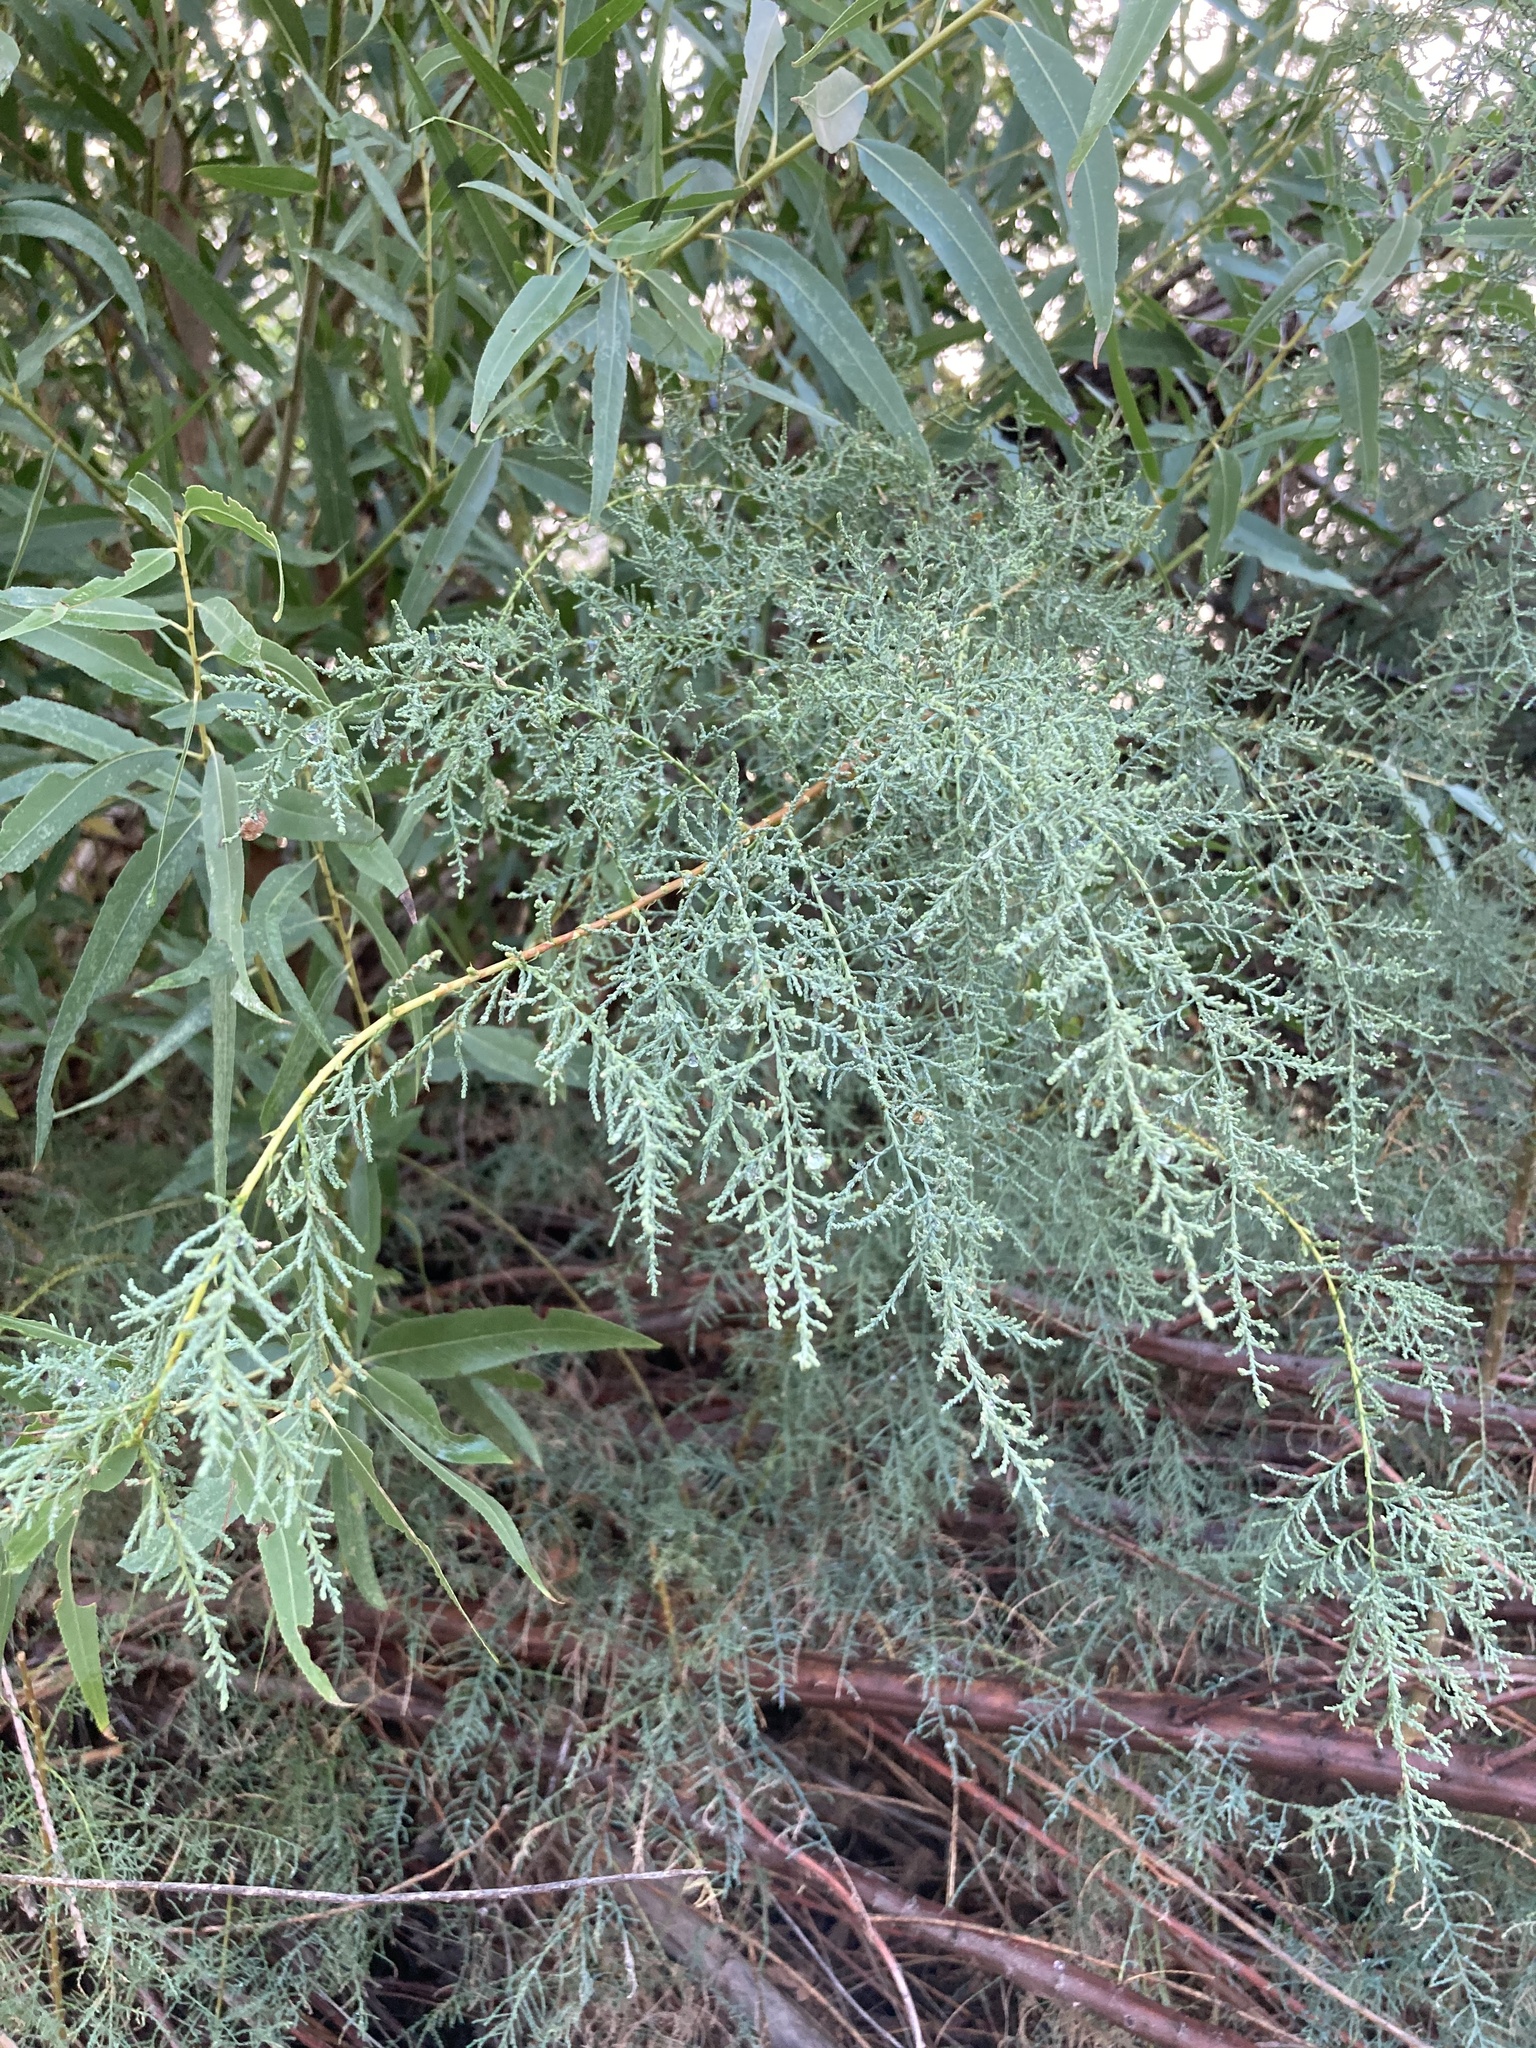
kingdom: Plantae
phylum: Tracheophyta
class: Magnoliopsida
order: Caryophyllales
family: Tamaricaceae
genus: Tamarix
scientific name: Tamarix
